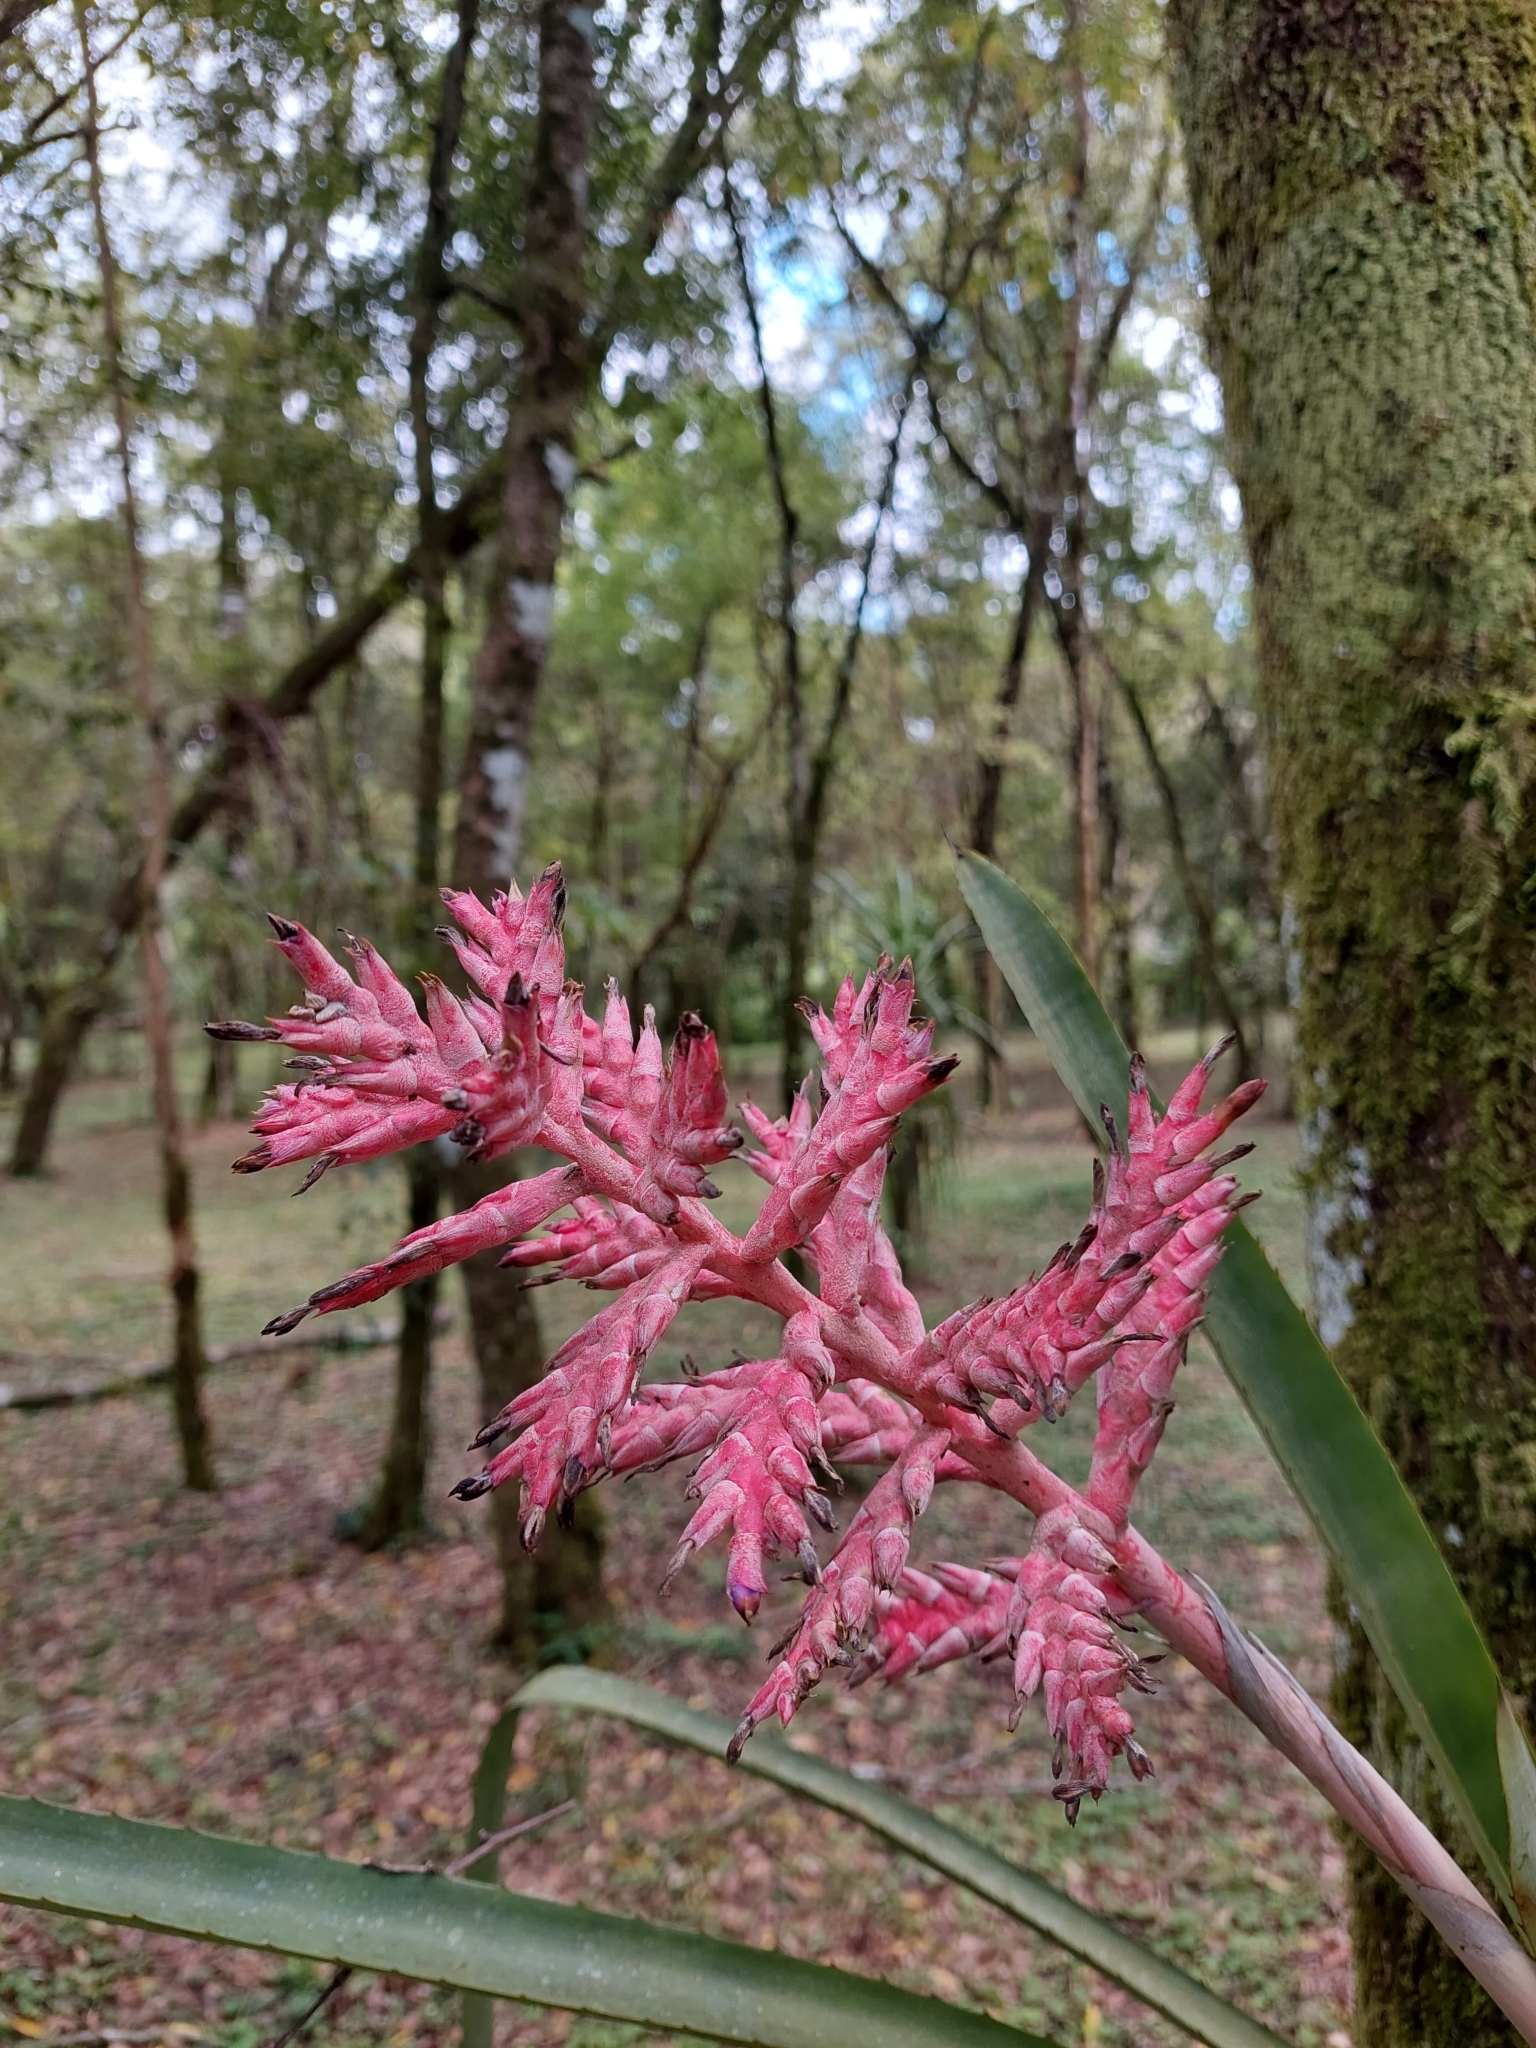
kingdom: Plantae
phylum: Tracheophyta
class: Liliopsida
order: Poales
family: Bromeliaceae
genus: Aechmea
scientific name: Aechmea distichantha
